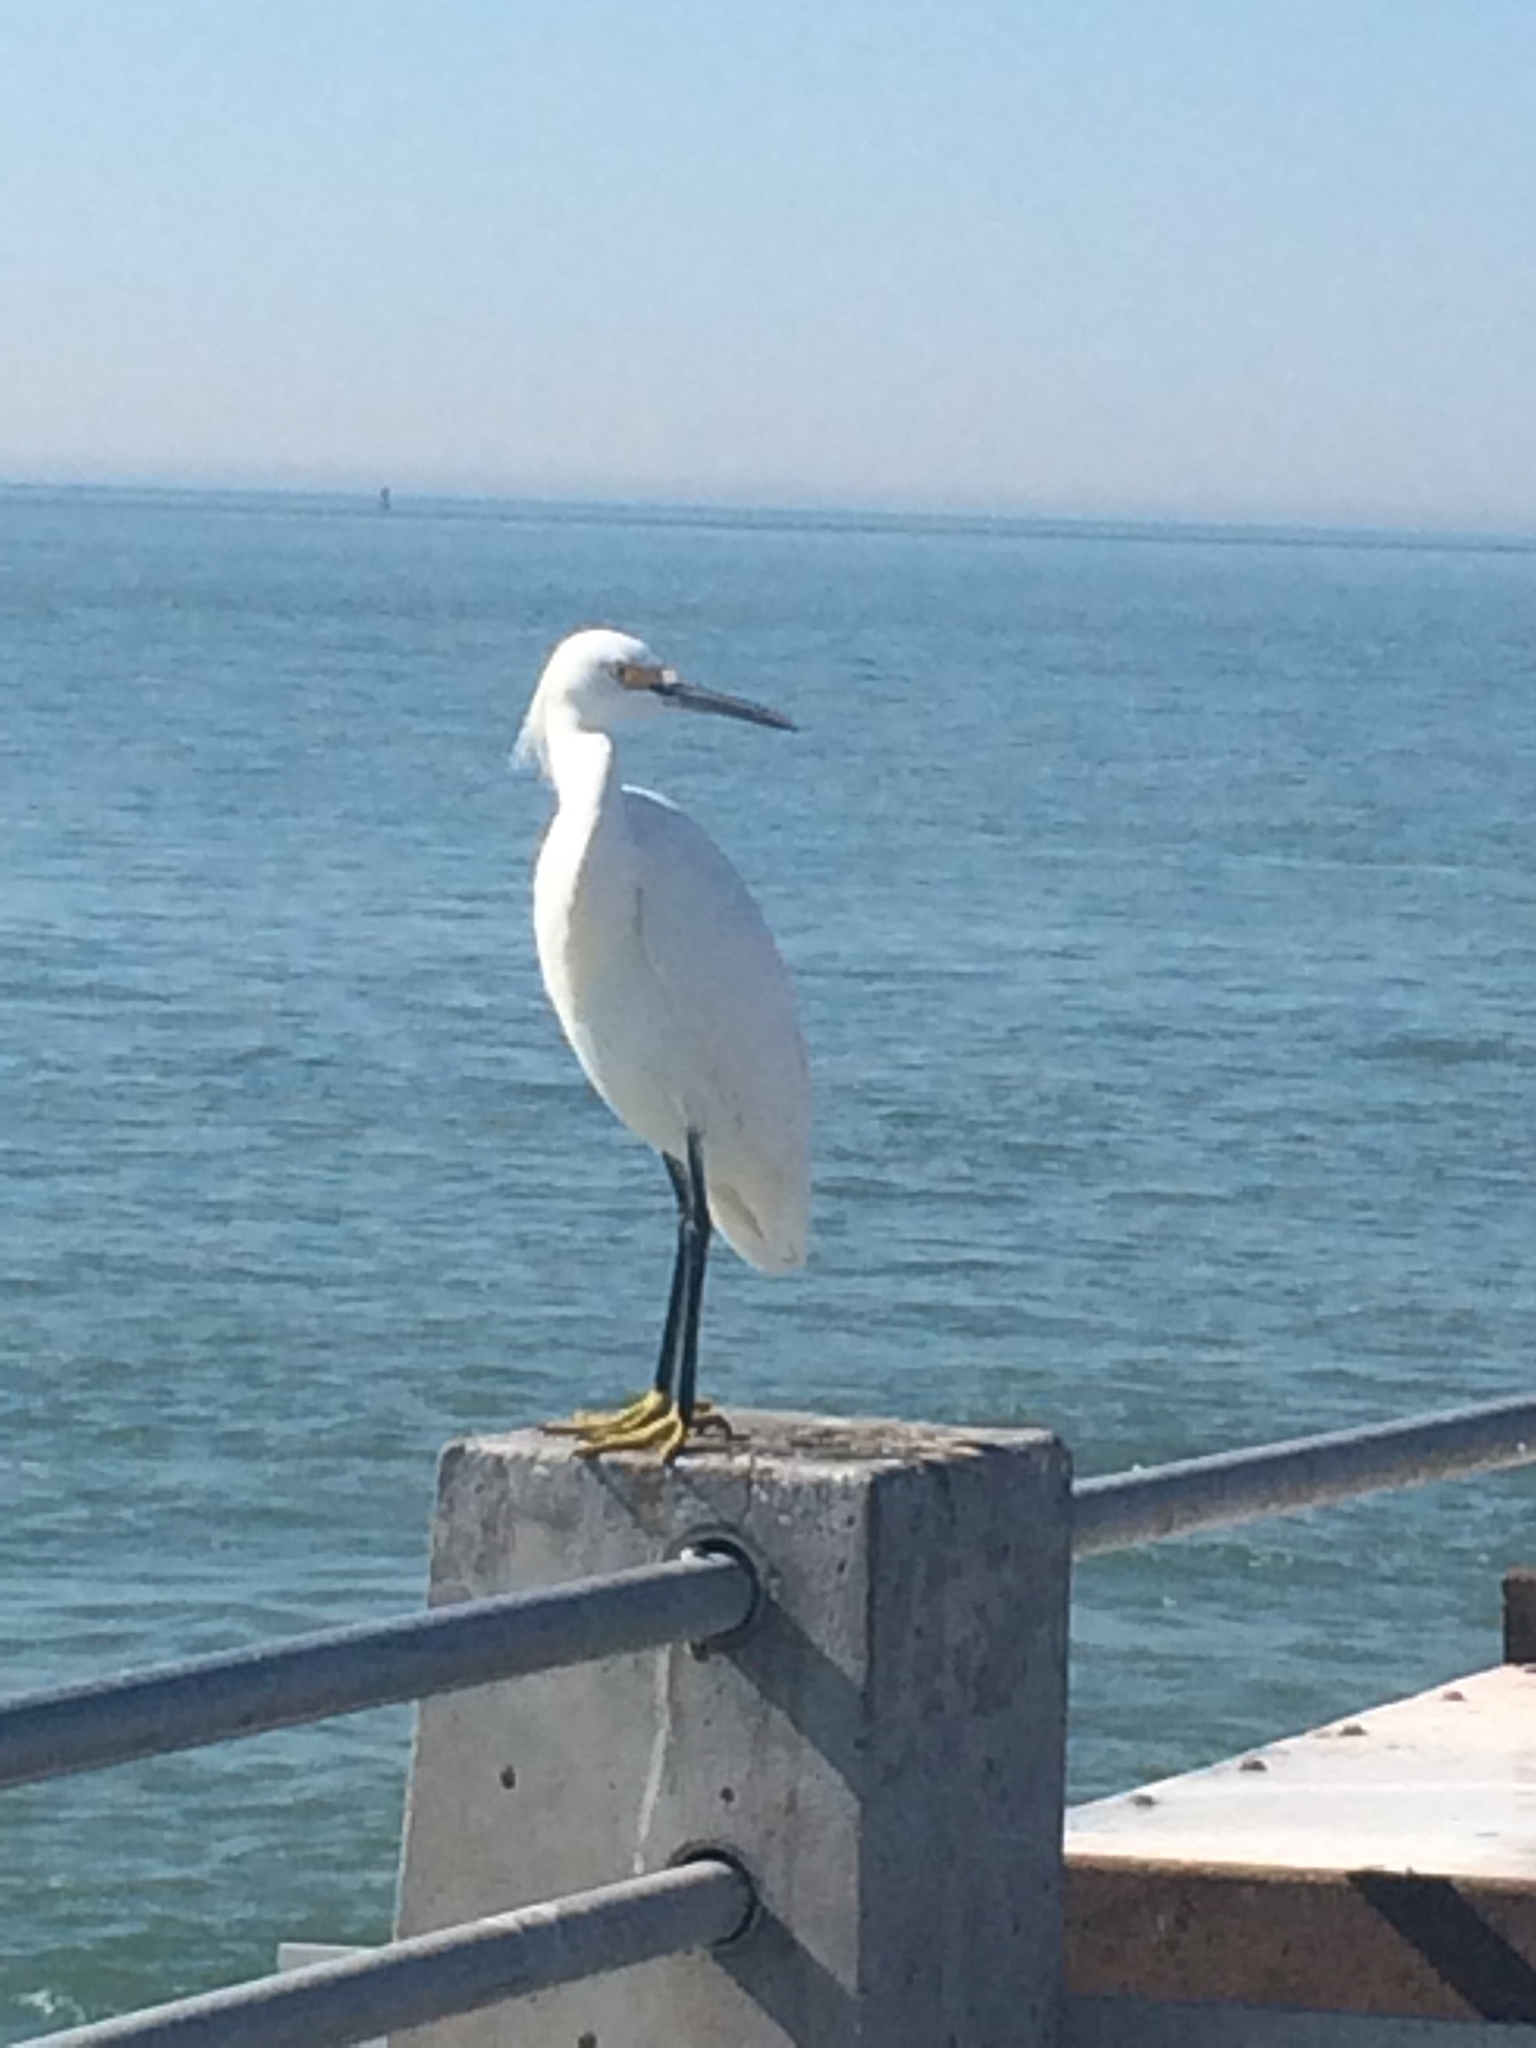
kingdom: Animalia
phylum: Chordata
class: Aves
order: Pelecaniformes
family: Ardeidae
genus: Egretta
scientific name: Egretta thula
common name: Snowy egret
